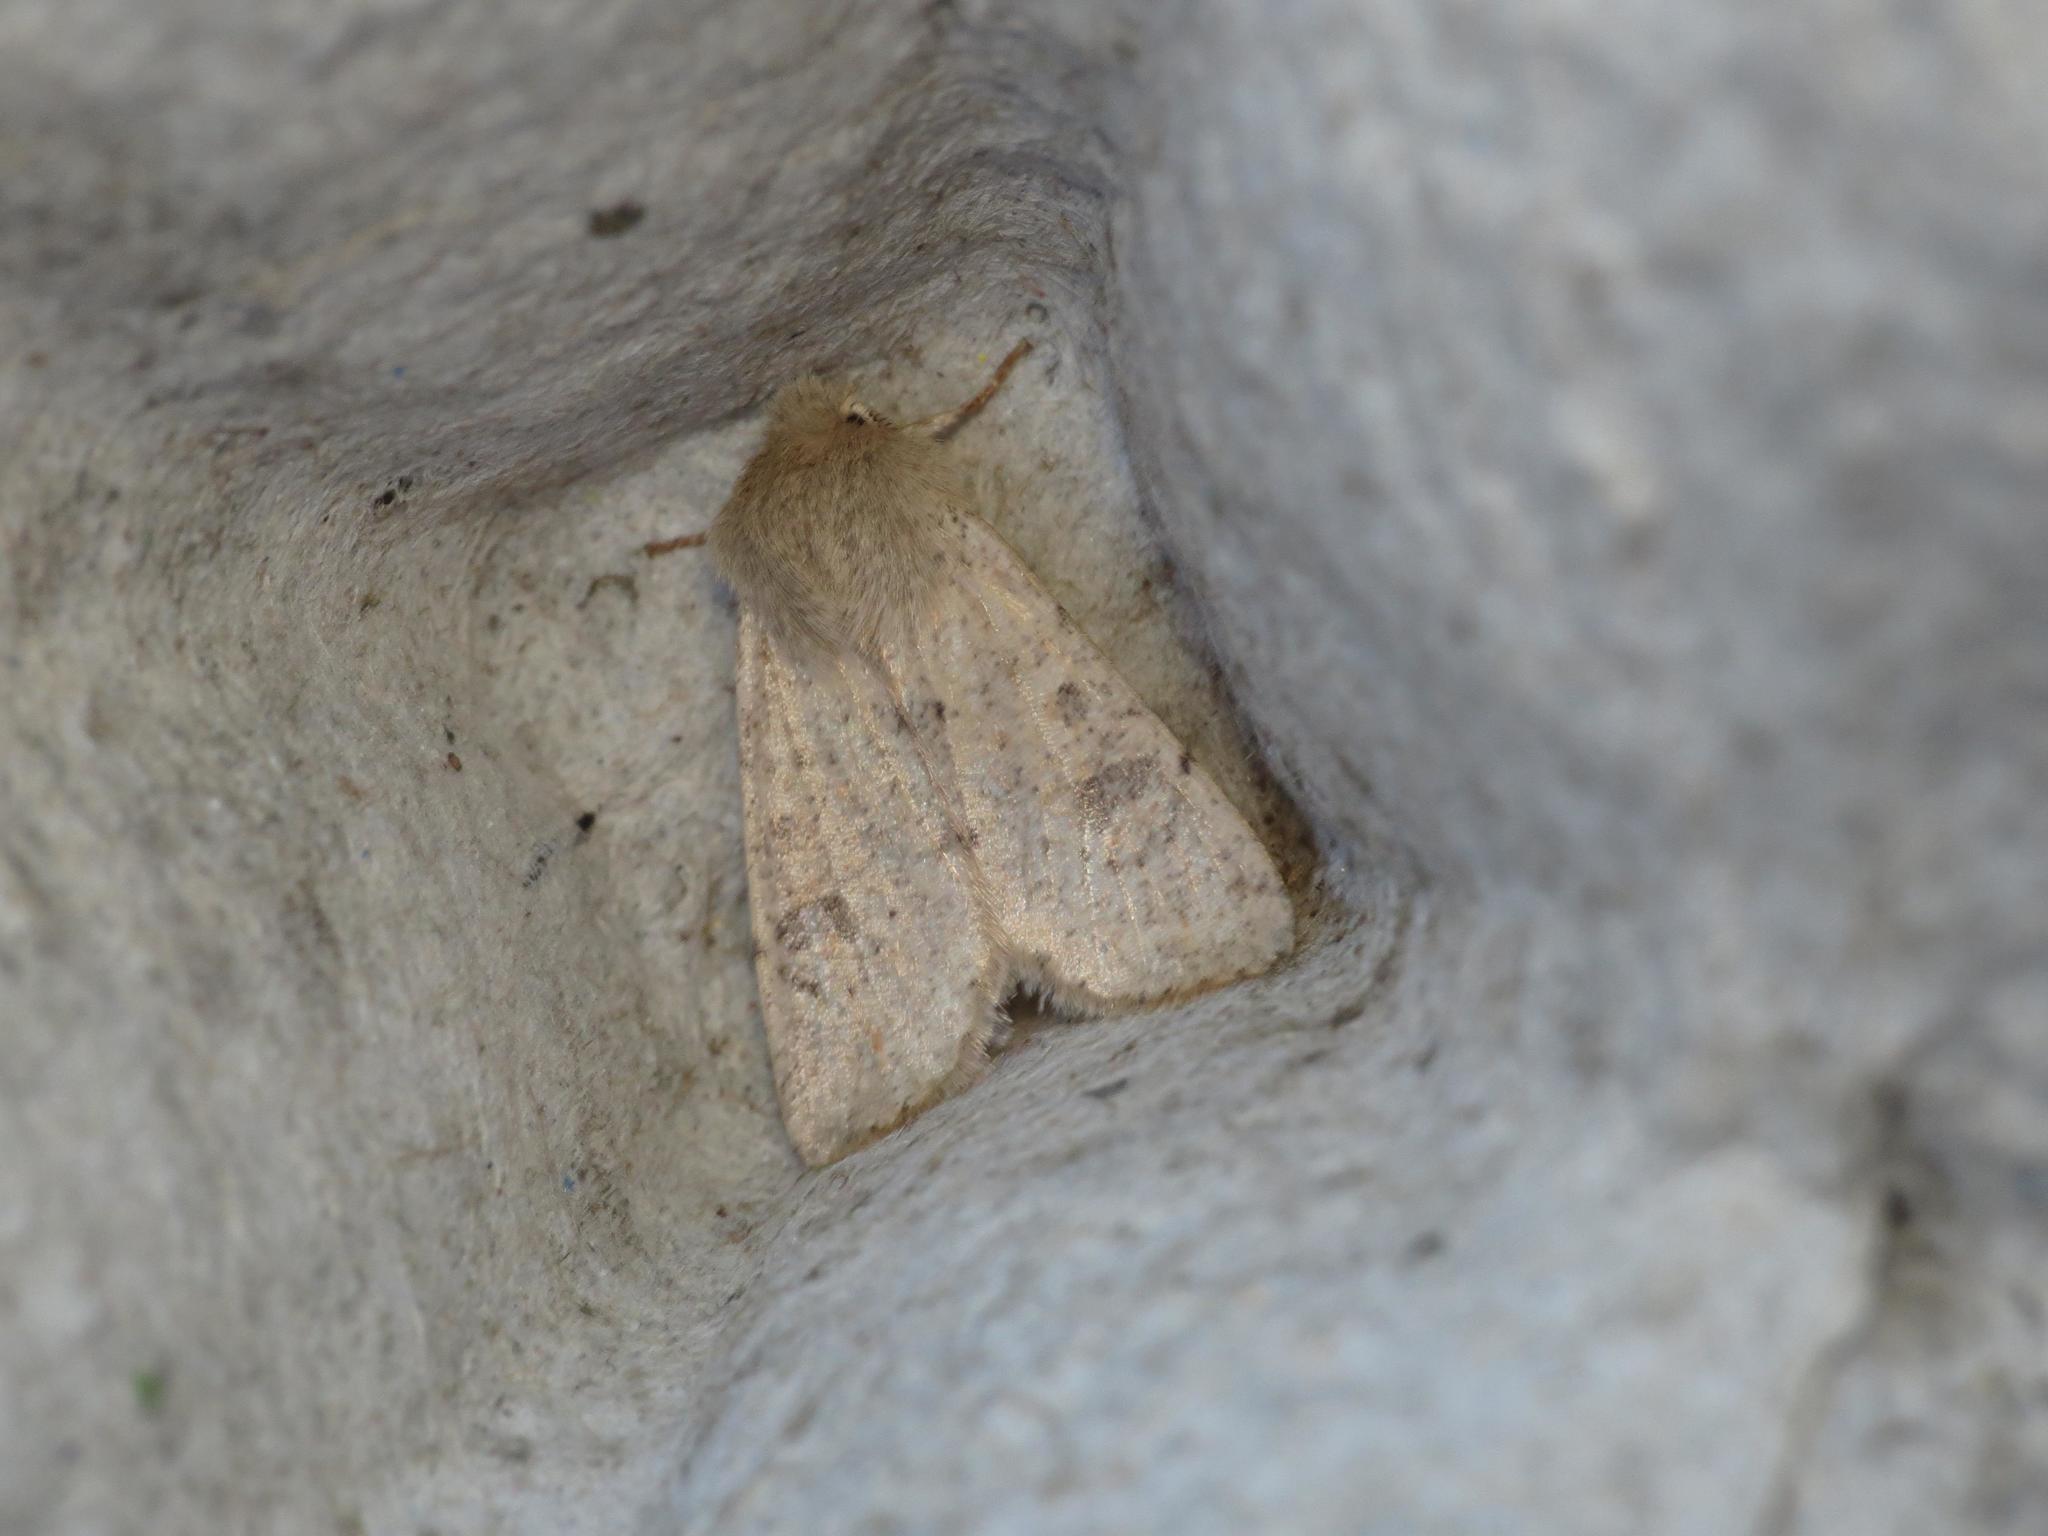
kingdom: Animalia
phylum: Arthropoda
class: Insecta
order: Lepidoptera
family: Noctuidae
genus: Orthosia
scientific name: Orthosia cruda
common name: Small quaker
